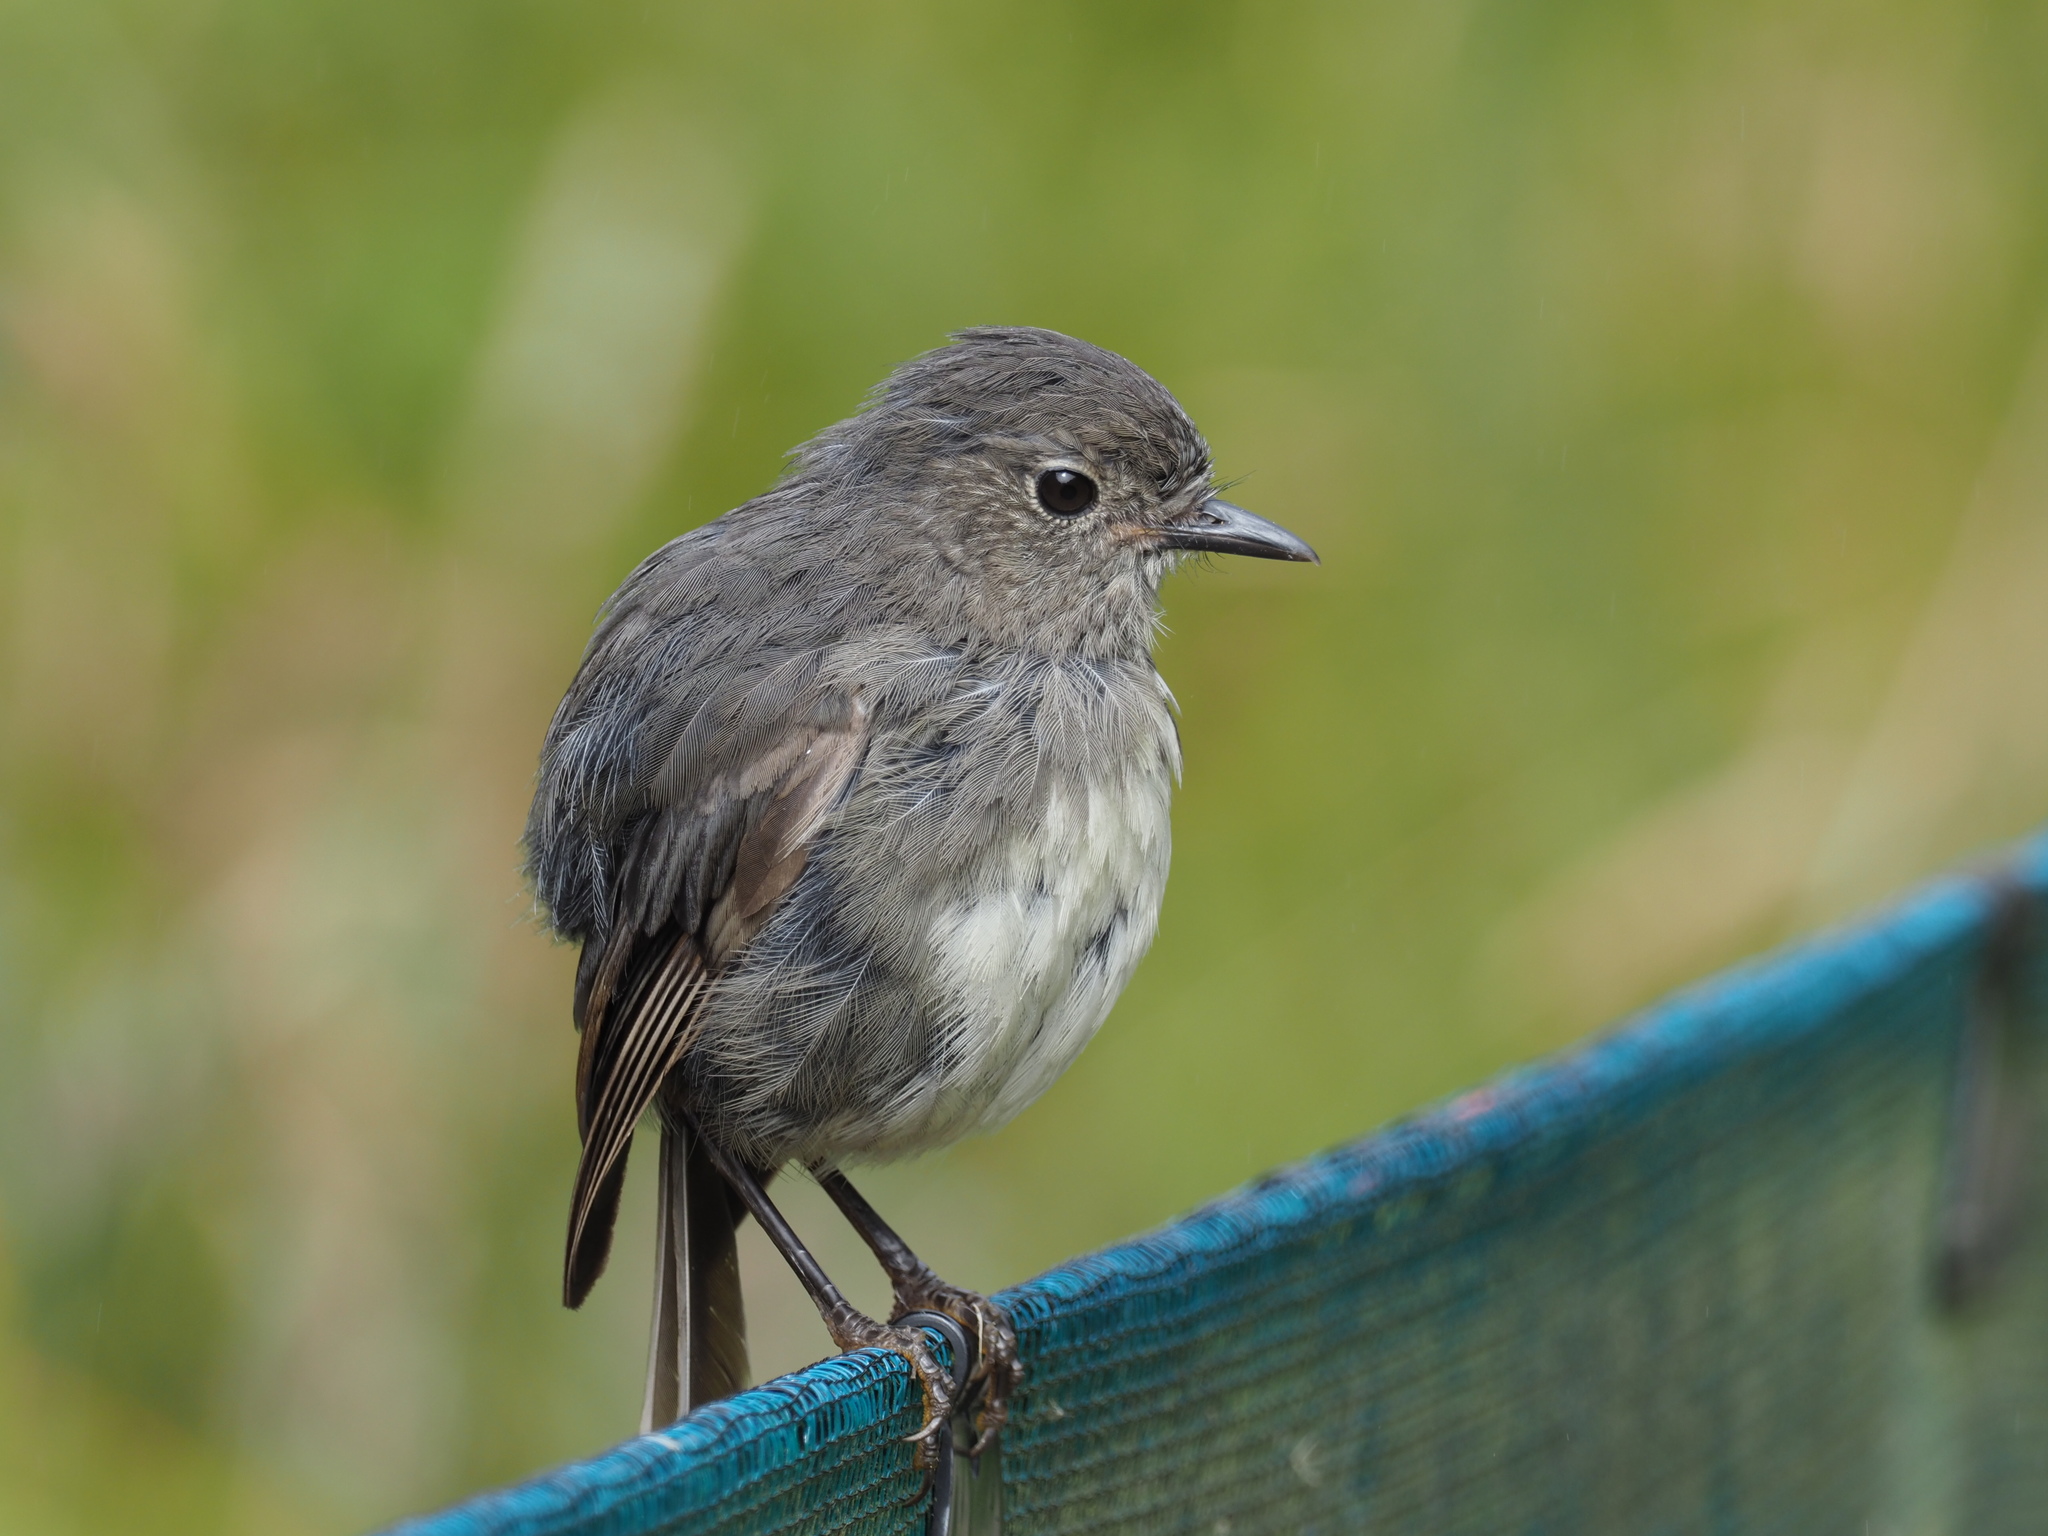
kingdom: Animalia
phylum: Chordata
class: Aves
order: Passeriformes
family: Petroicidae
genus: Petroica
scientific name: Petroica australis
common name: New zealand robin
